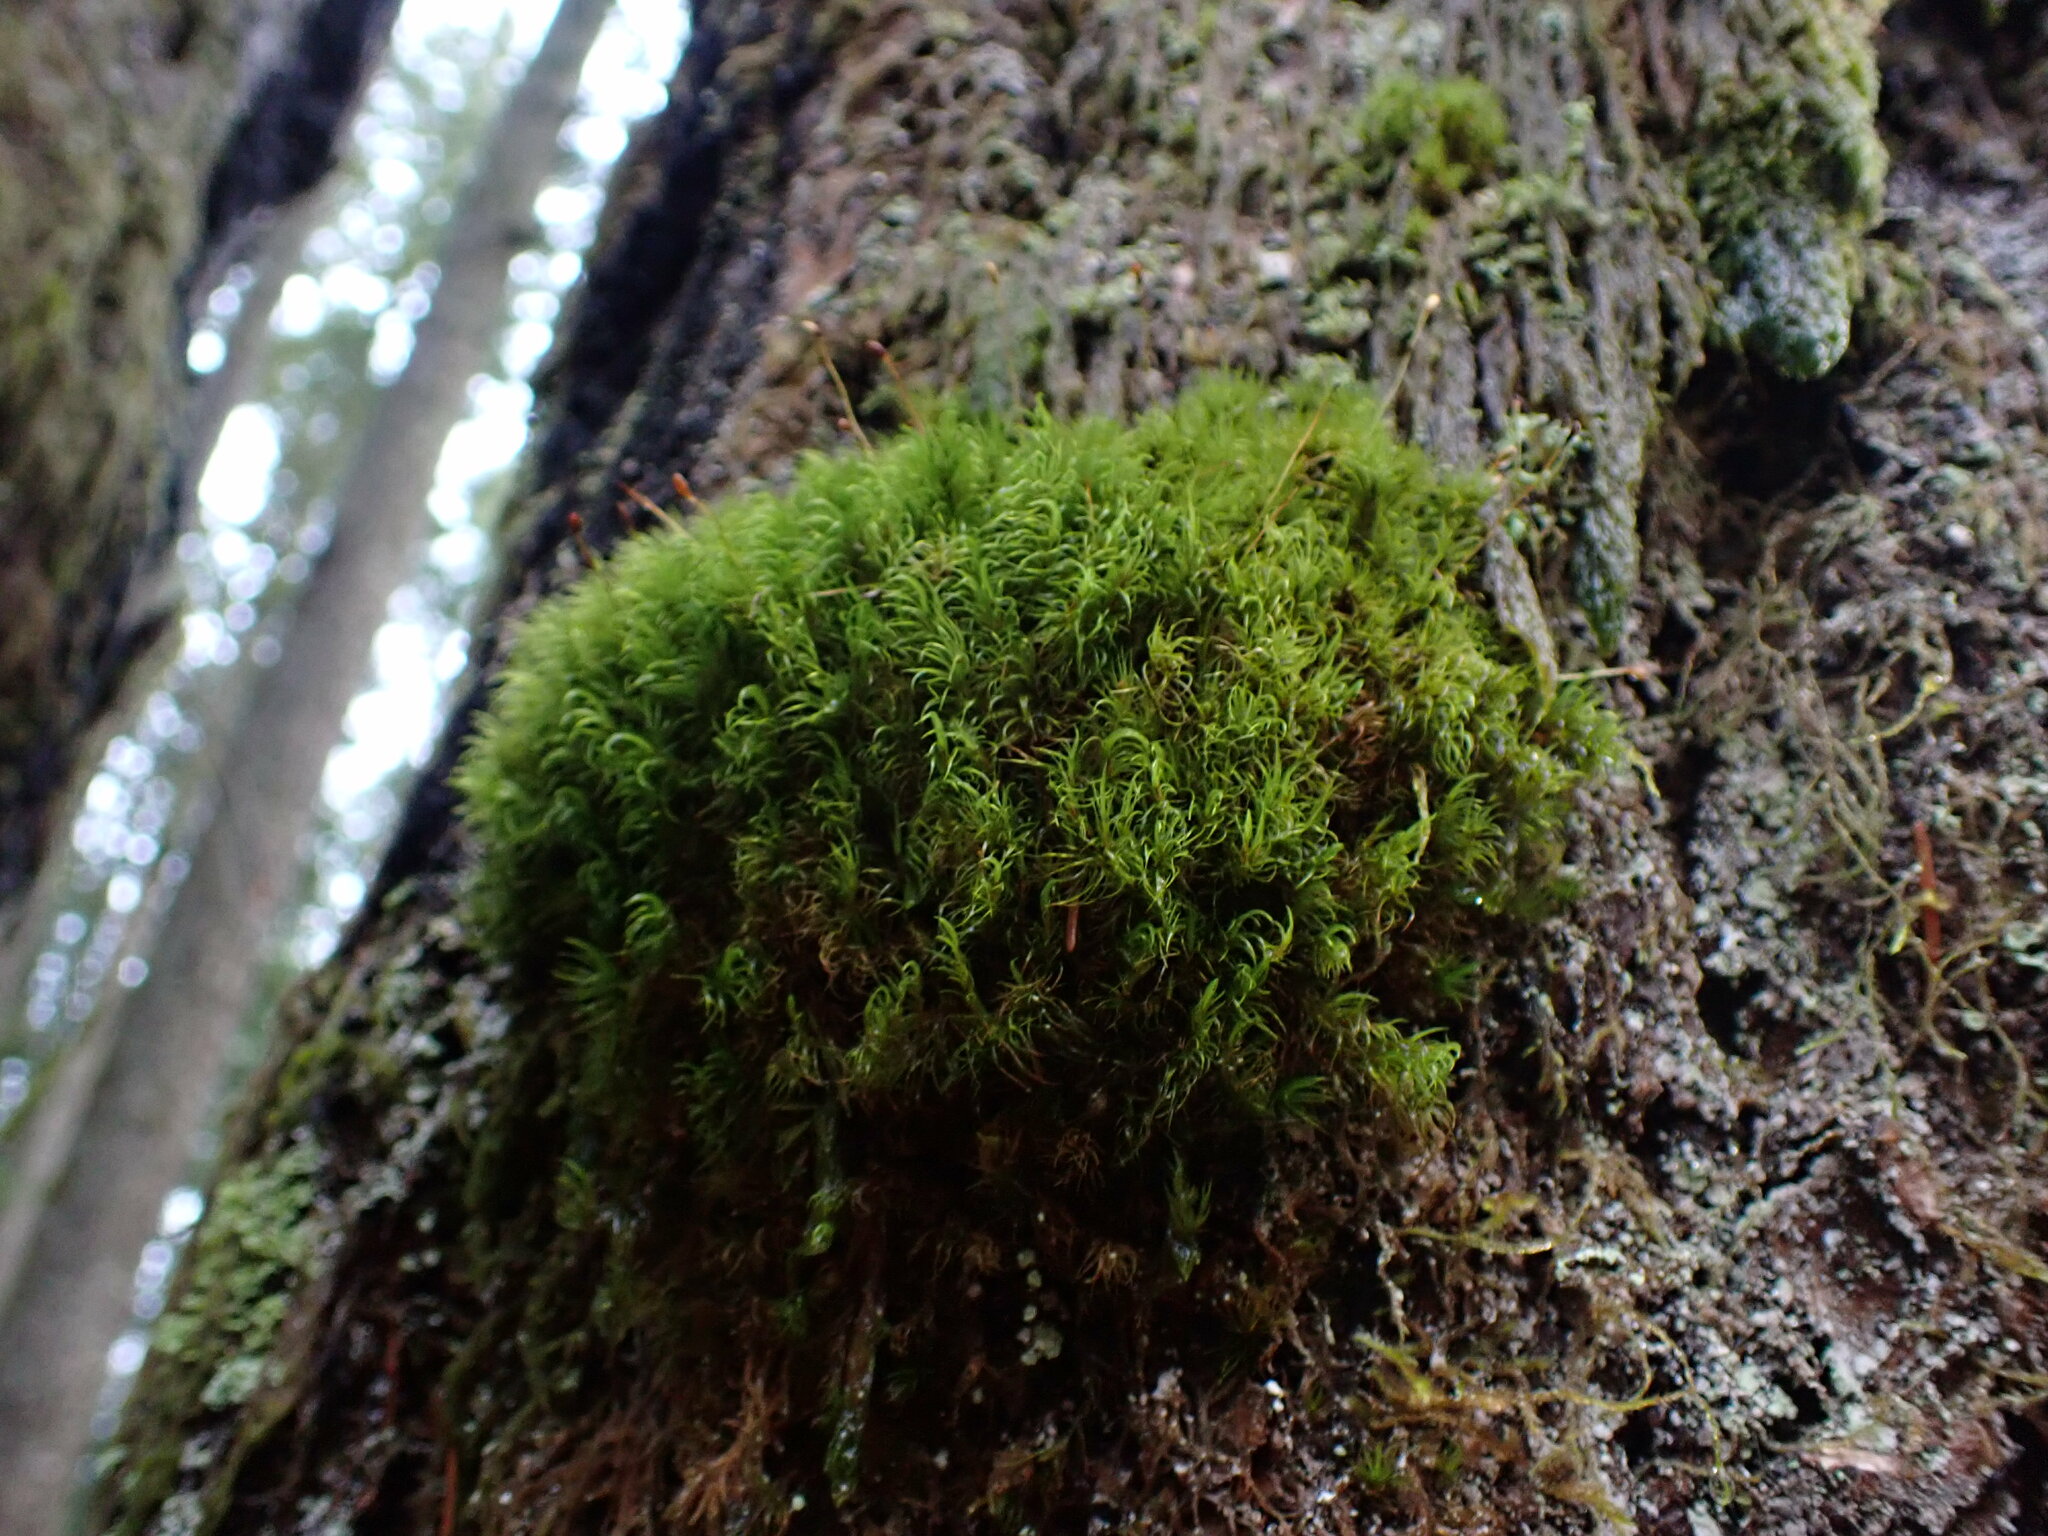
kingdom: Plantae
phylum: Bryophyta
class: Bryopsida
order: Dicranales
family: Dicranaceae
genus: Dicranum
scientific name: Dicranum fuscescens
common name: Curly heron's-bill moss
